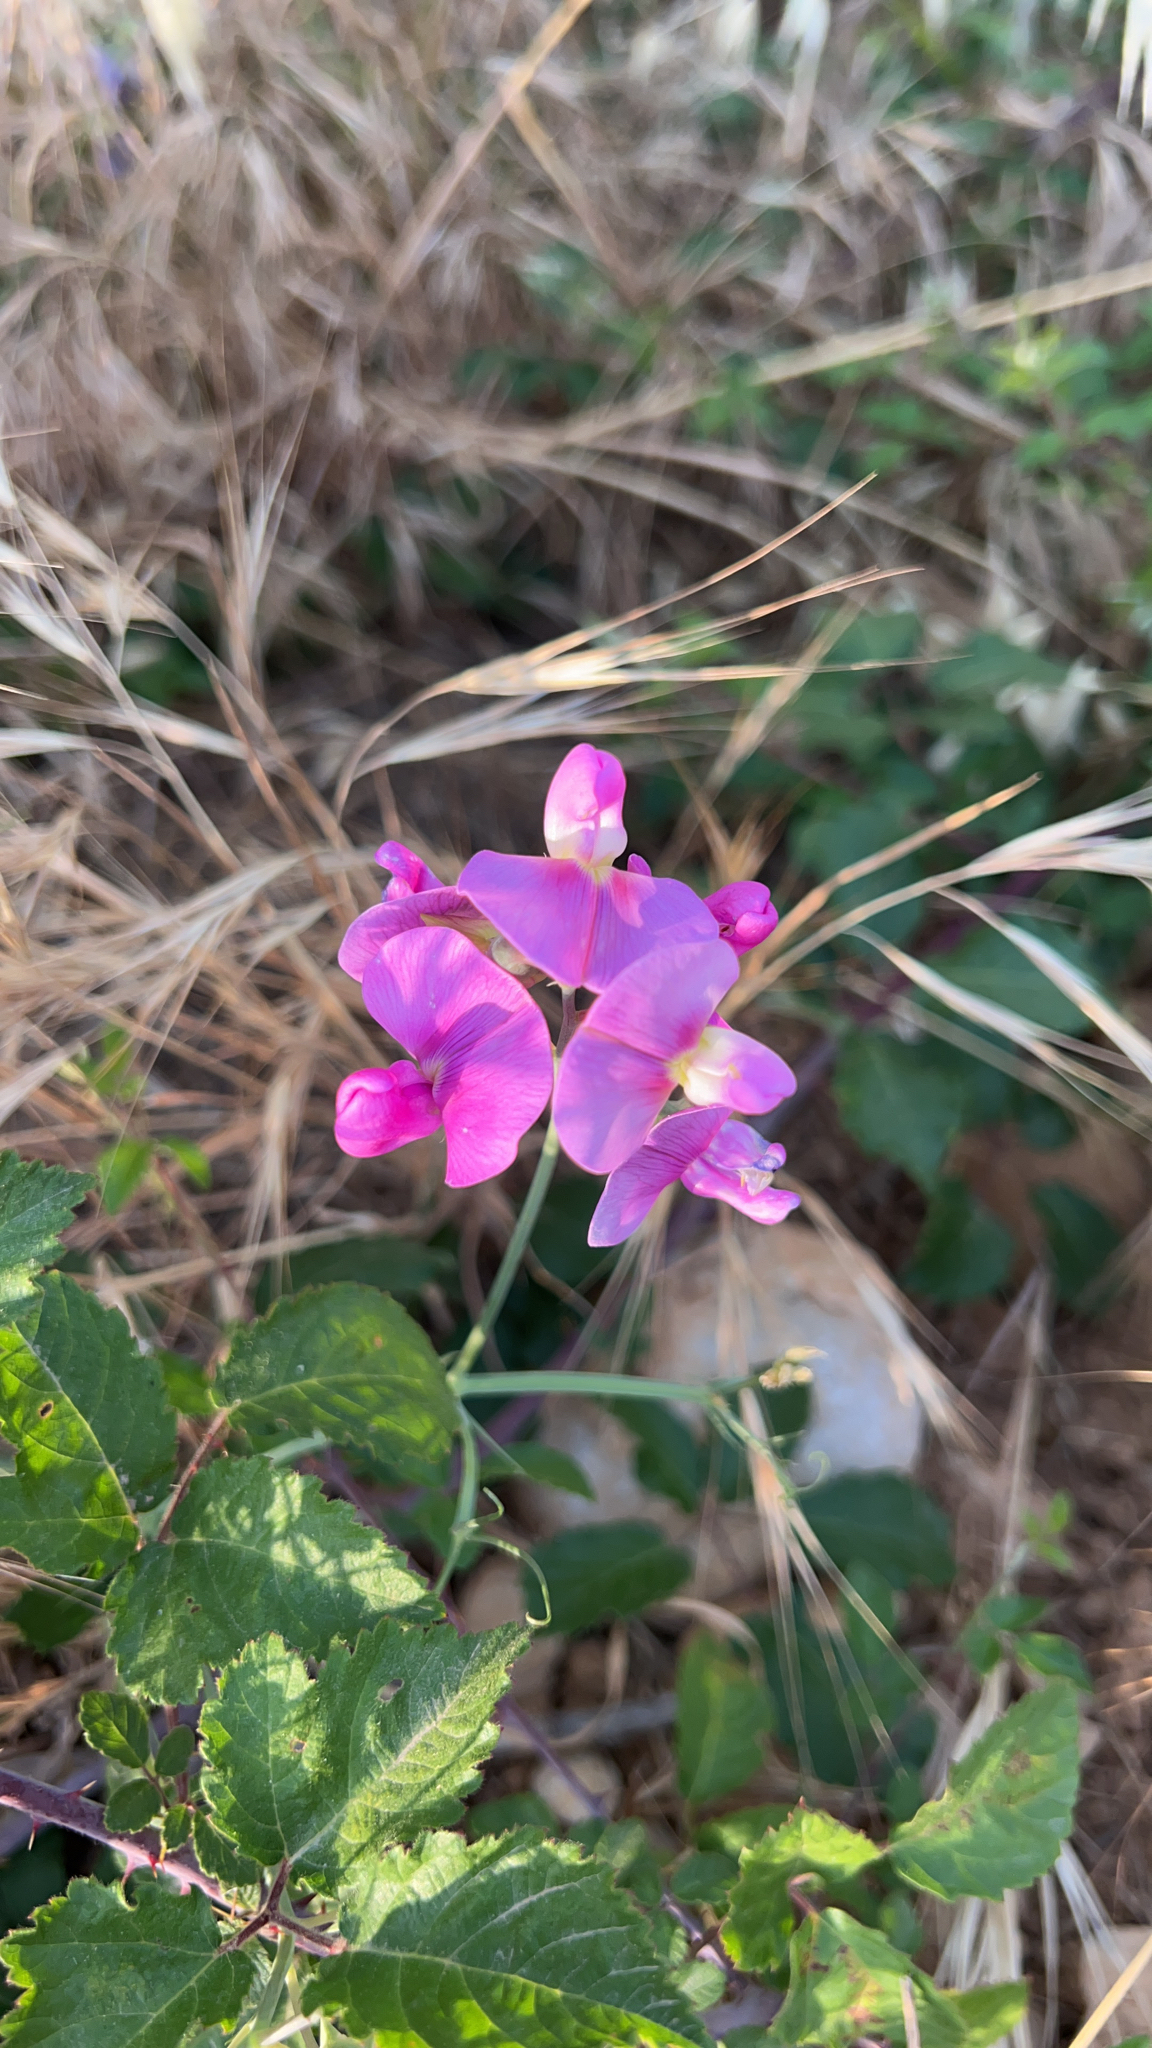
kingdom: Plantae
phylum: Tracheophyta
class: Magnoliopsida
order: Fabales
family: Fabaceae
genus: Lathyrus
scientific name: Lathyrus latifolius
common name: Perennial pea
